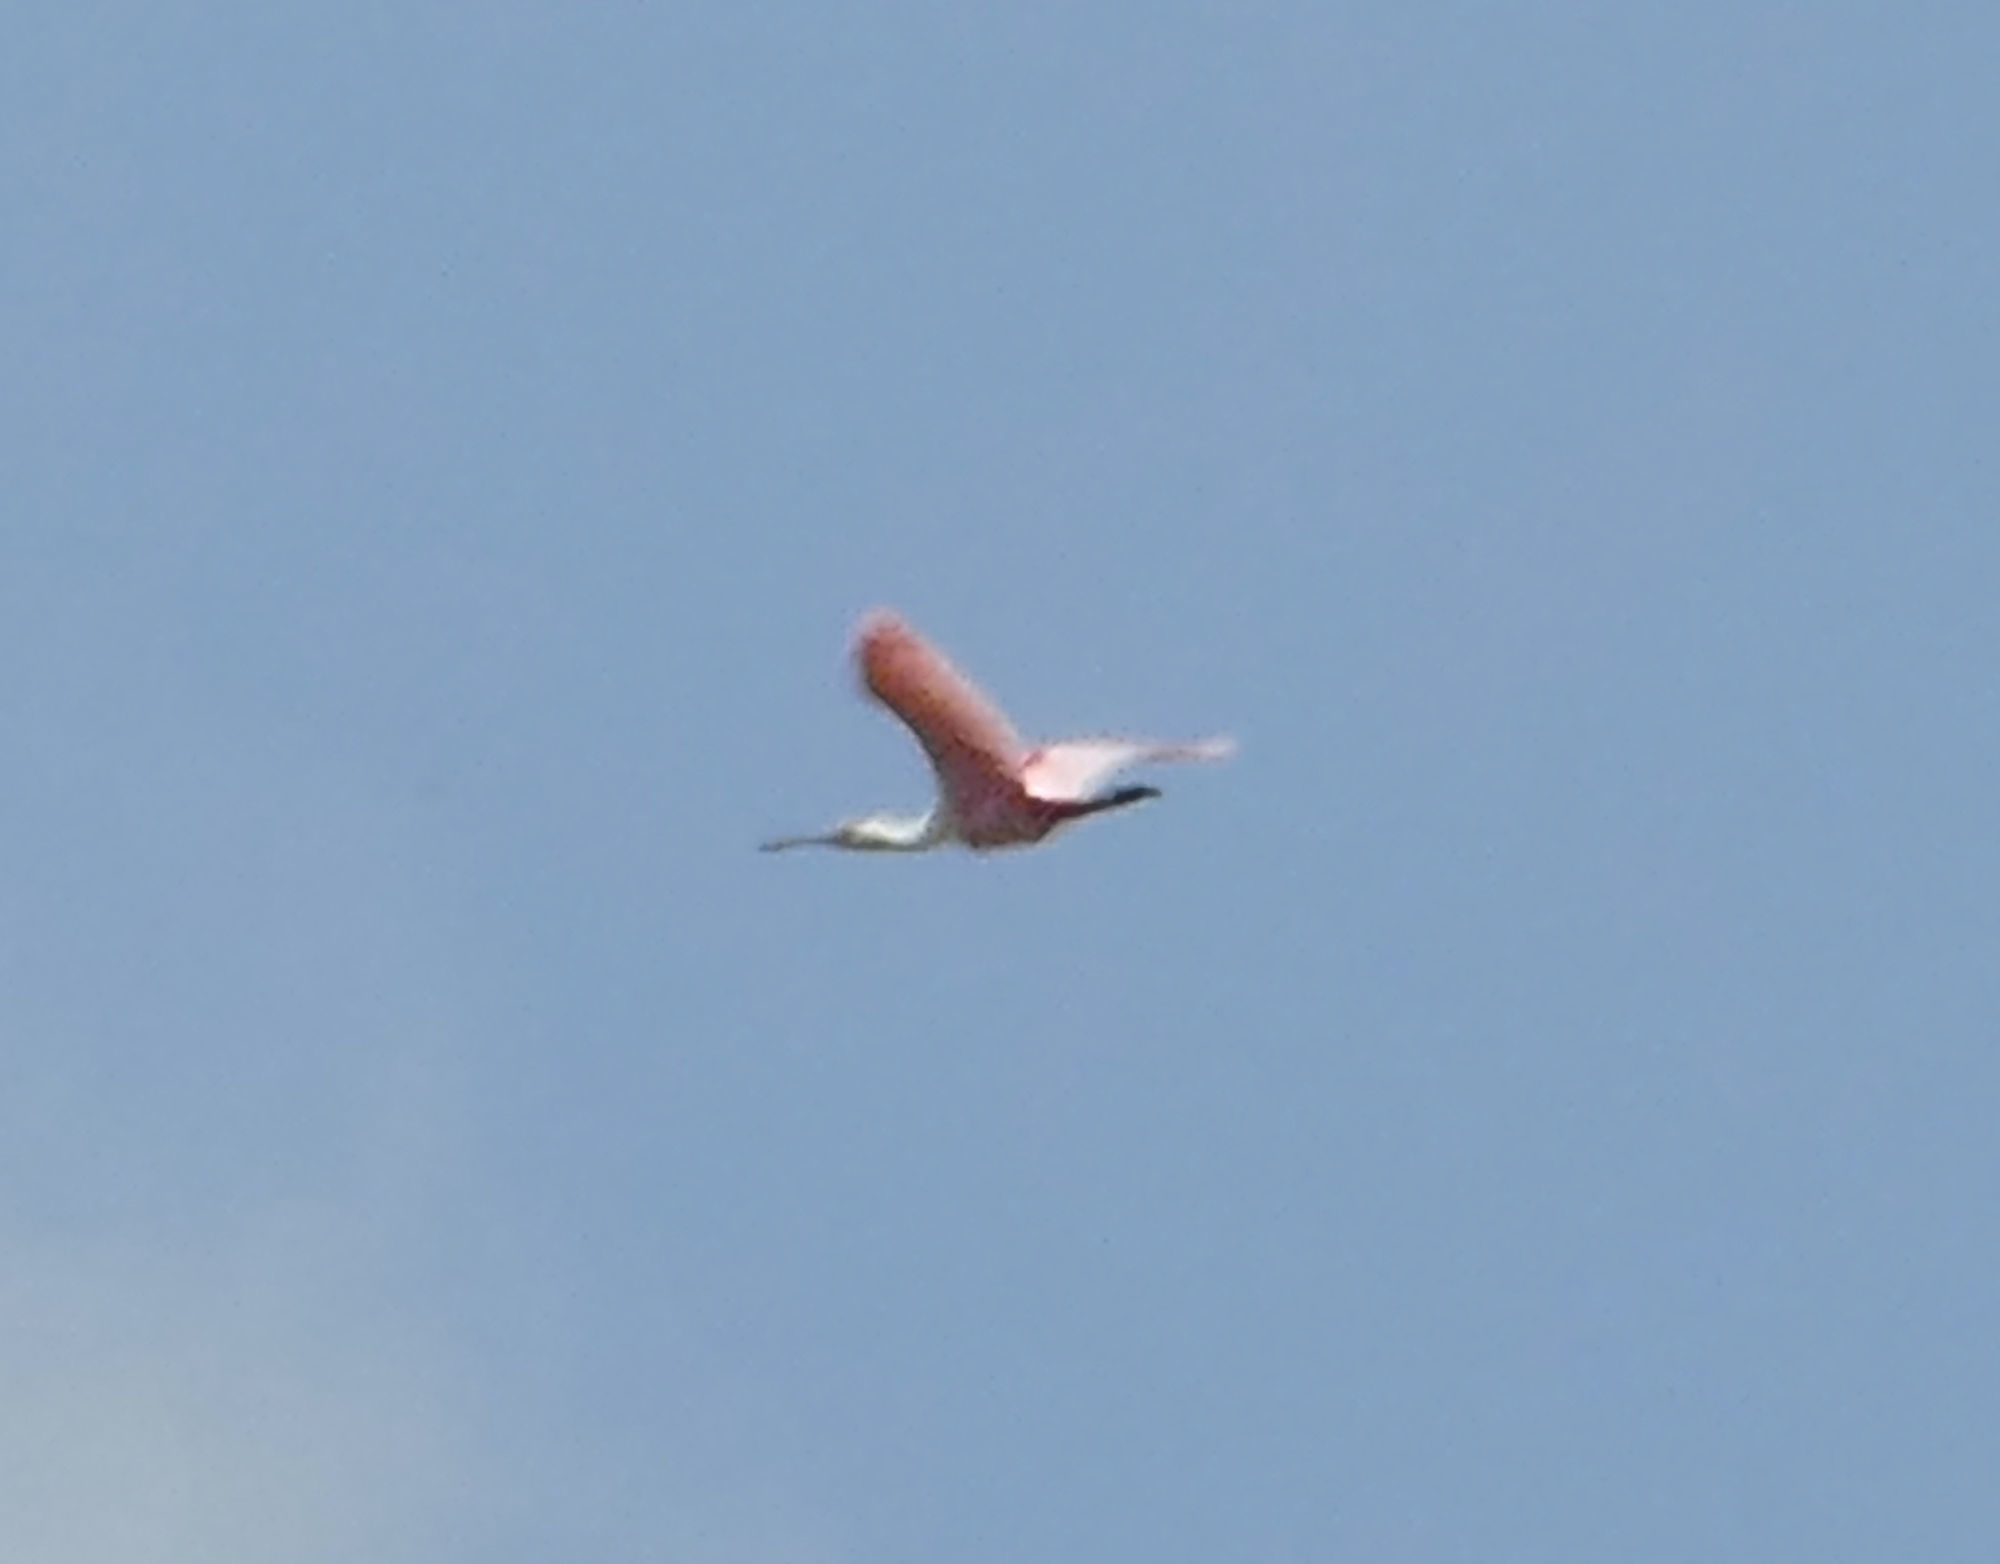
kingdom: Animalia
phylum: Chordata
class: Aves
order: Pelecaniformes
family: Threskiornithidae
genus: Platalea
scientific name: Platalea ajaja
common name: Roseate spoonbill
